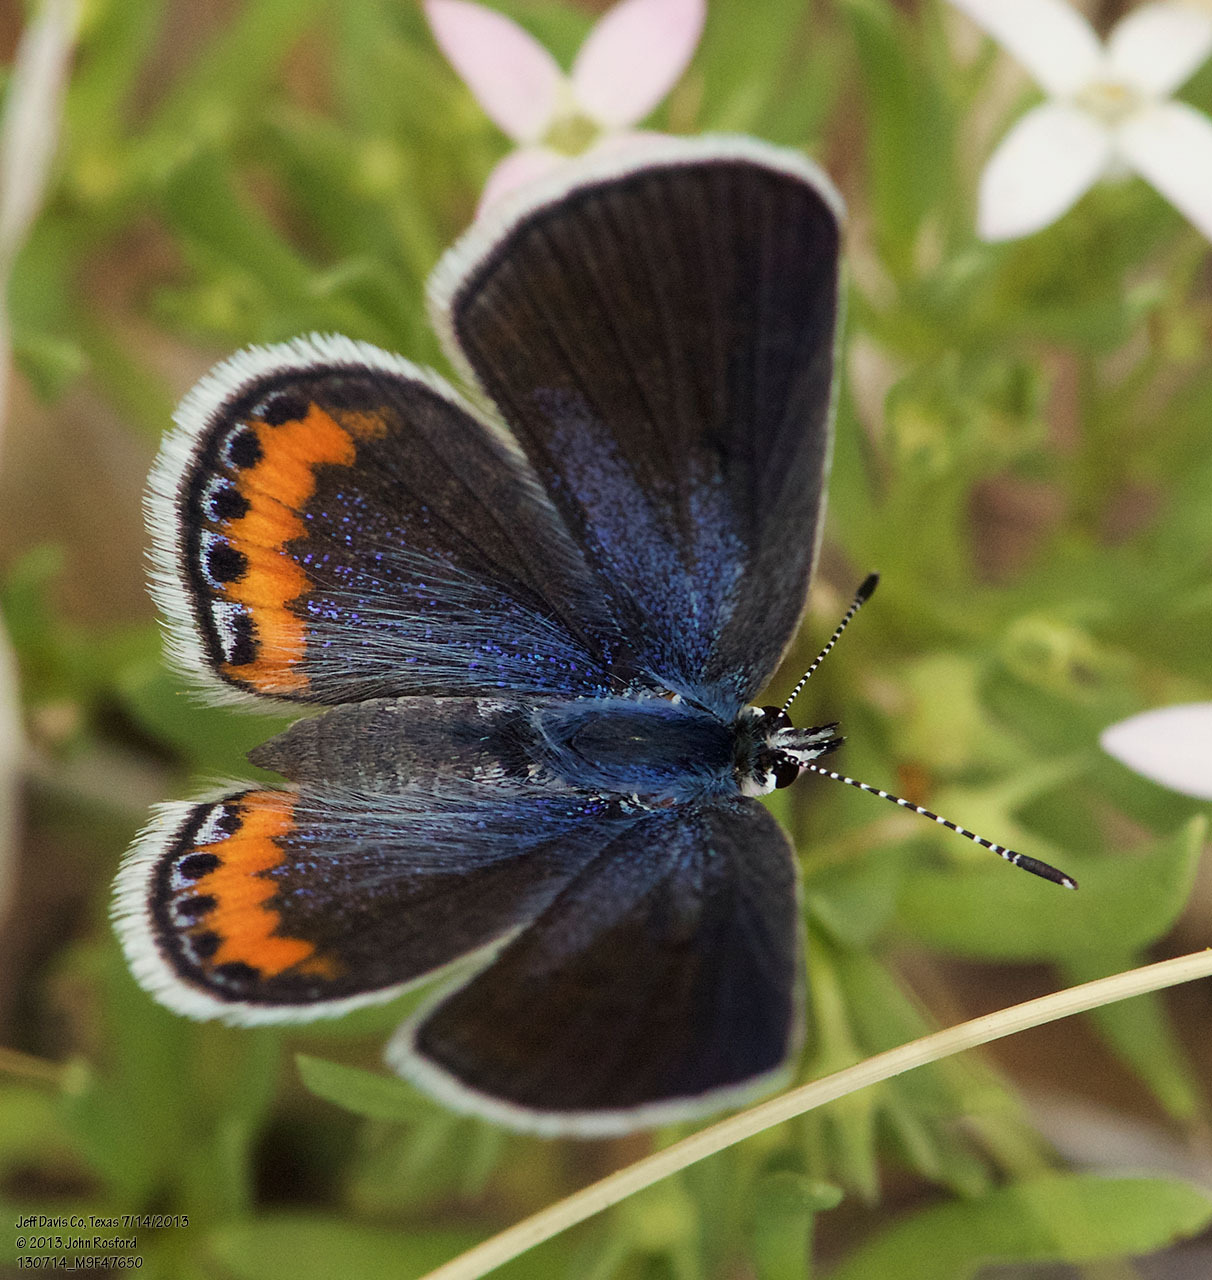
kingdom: Animalia
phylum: Arthropoda
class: Insecta
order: Lepidoptera
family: Lycaenidae
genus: Icaricia
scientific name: Icaricia lupini
